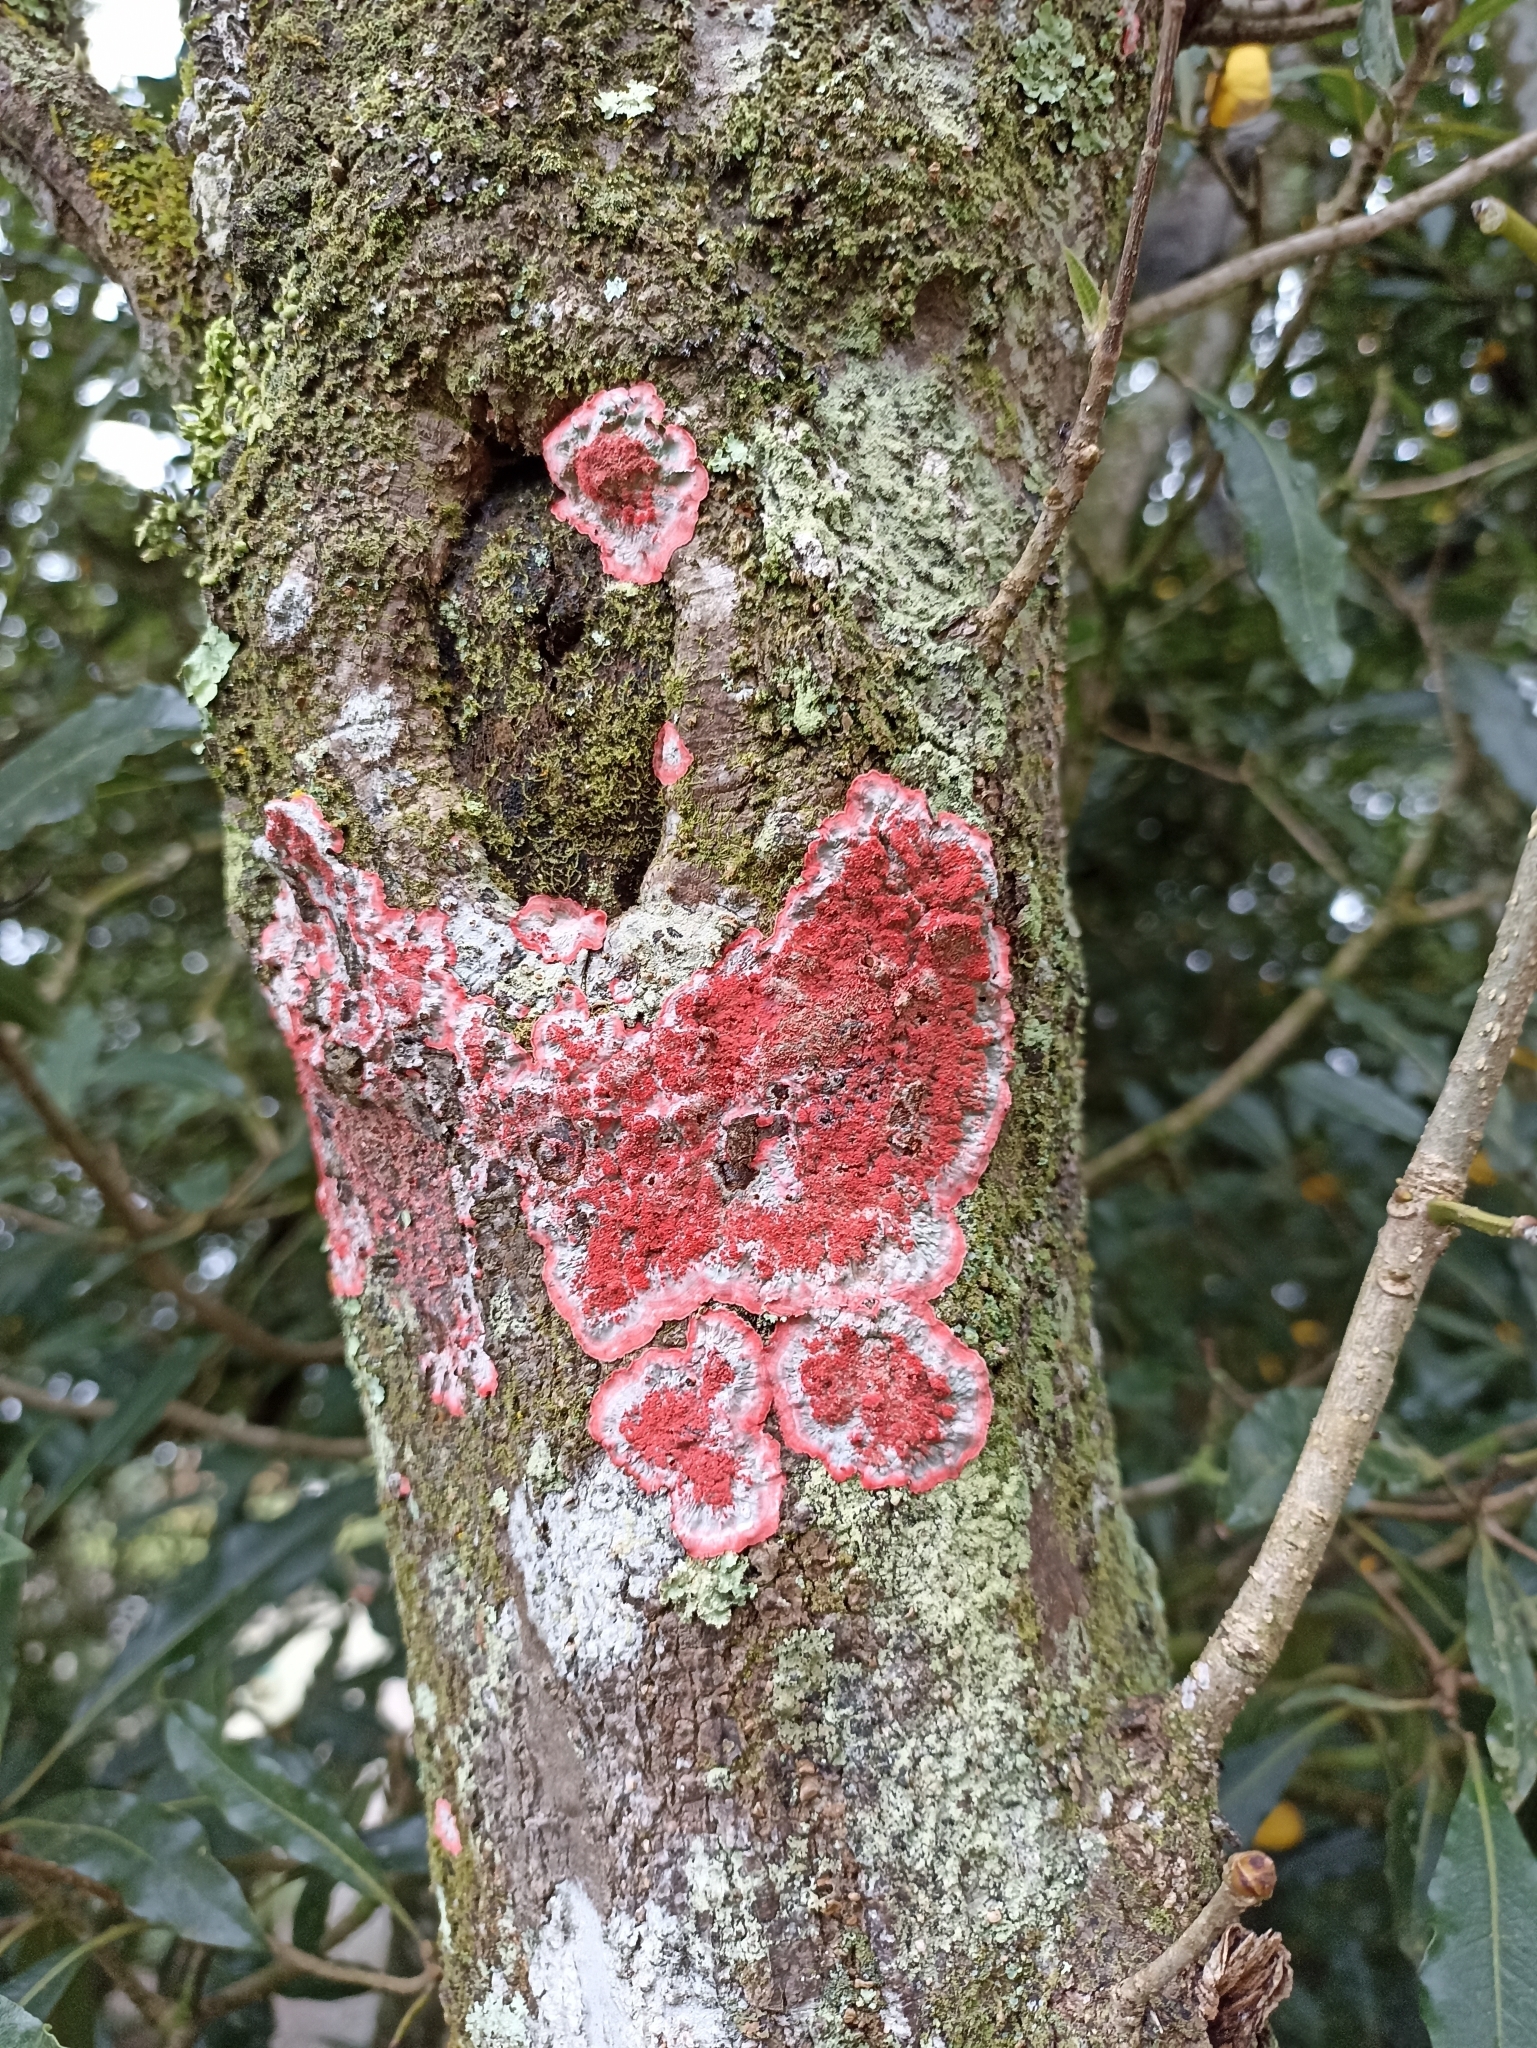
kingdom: Fungi
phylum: Ascomycota
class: Arthoniomycetes
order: Arthoniales
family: Arthoniaceae
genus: Herpothallon
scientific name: Herpothallon rubrocinctum
